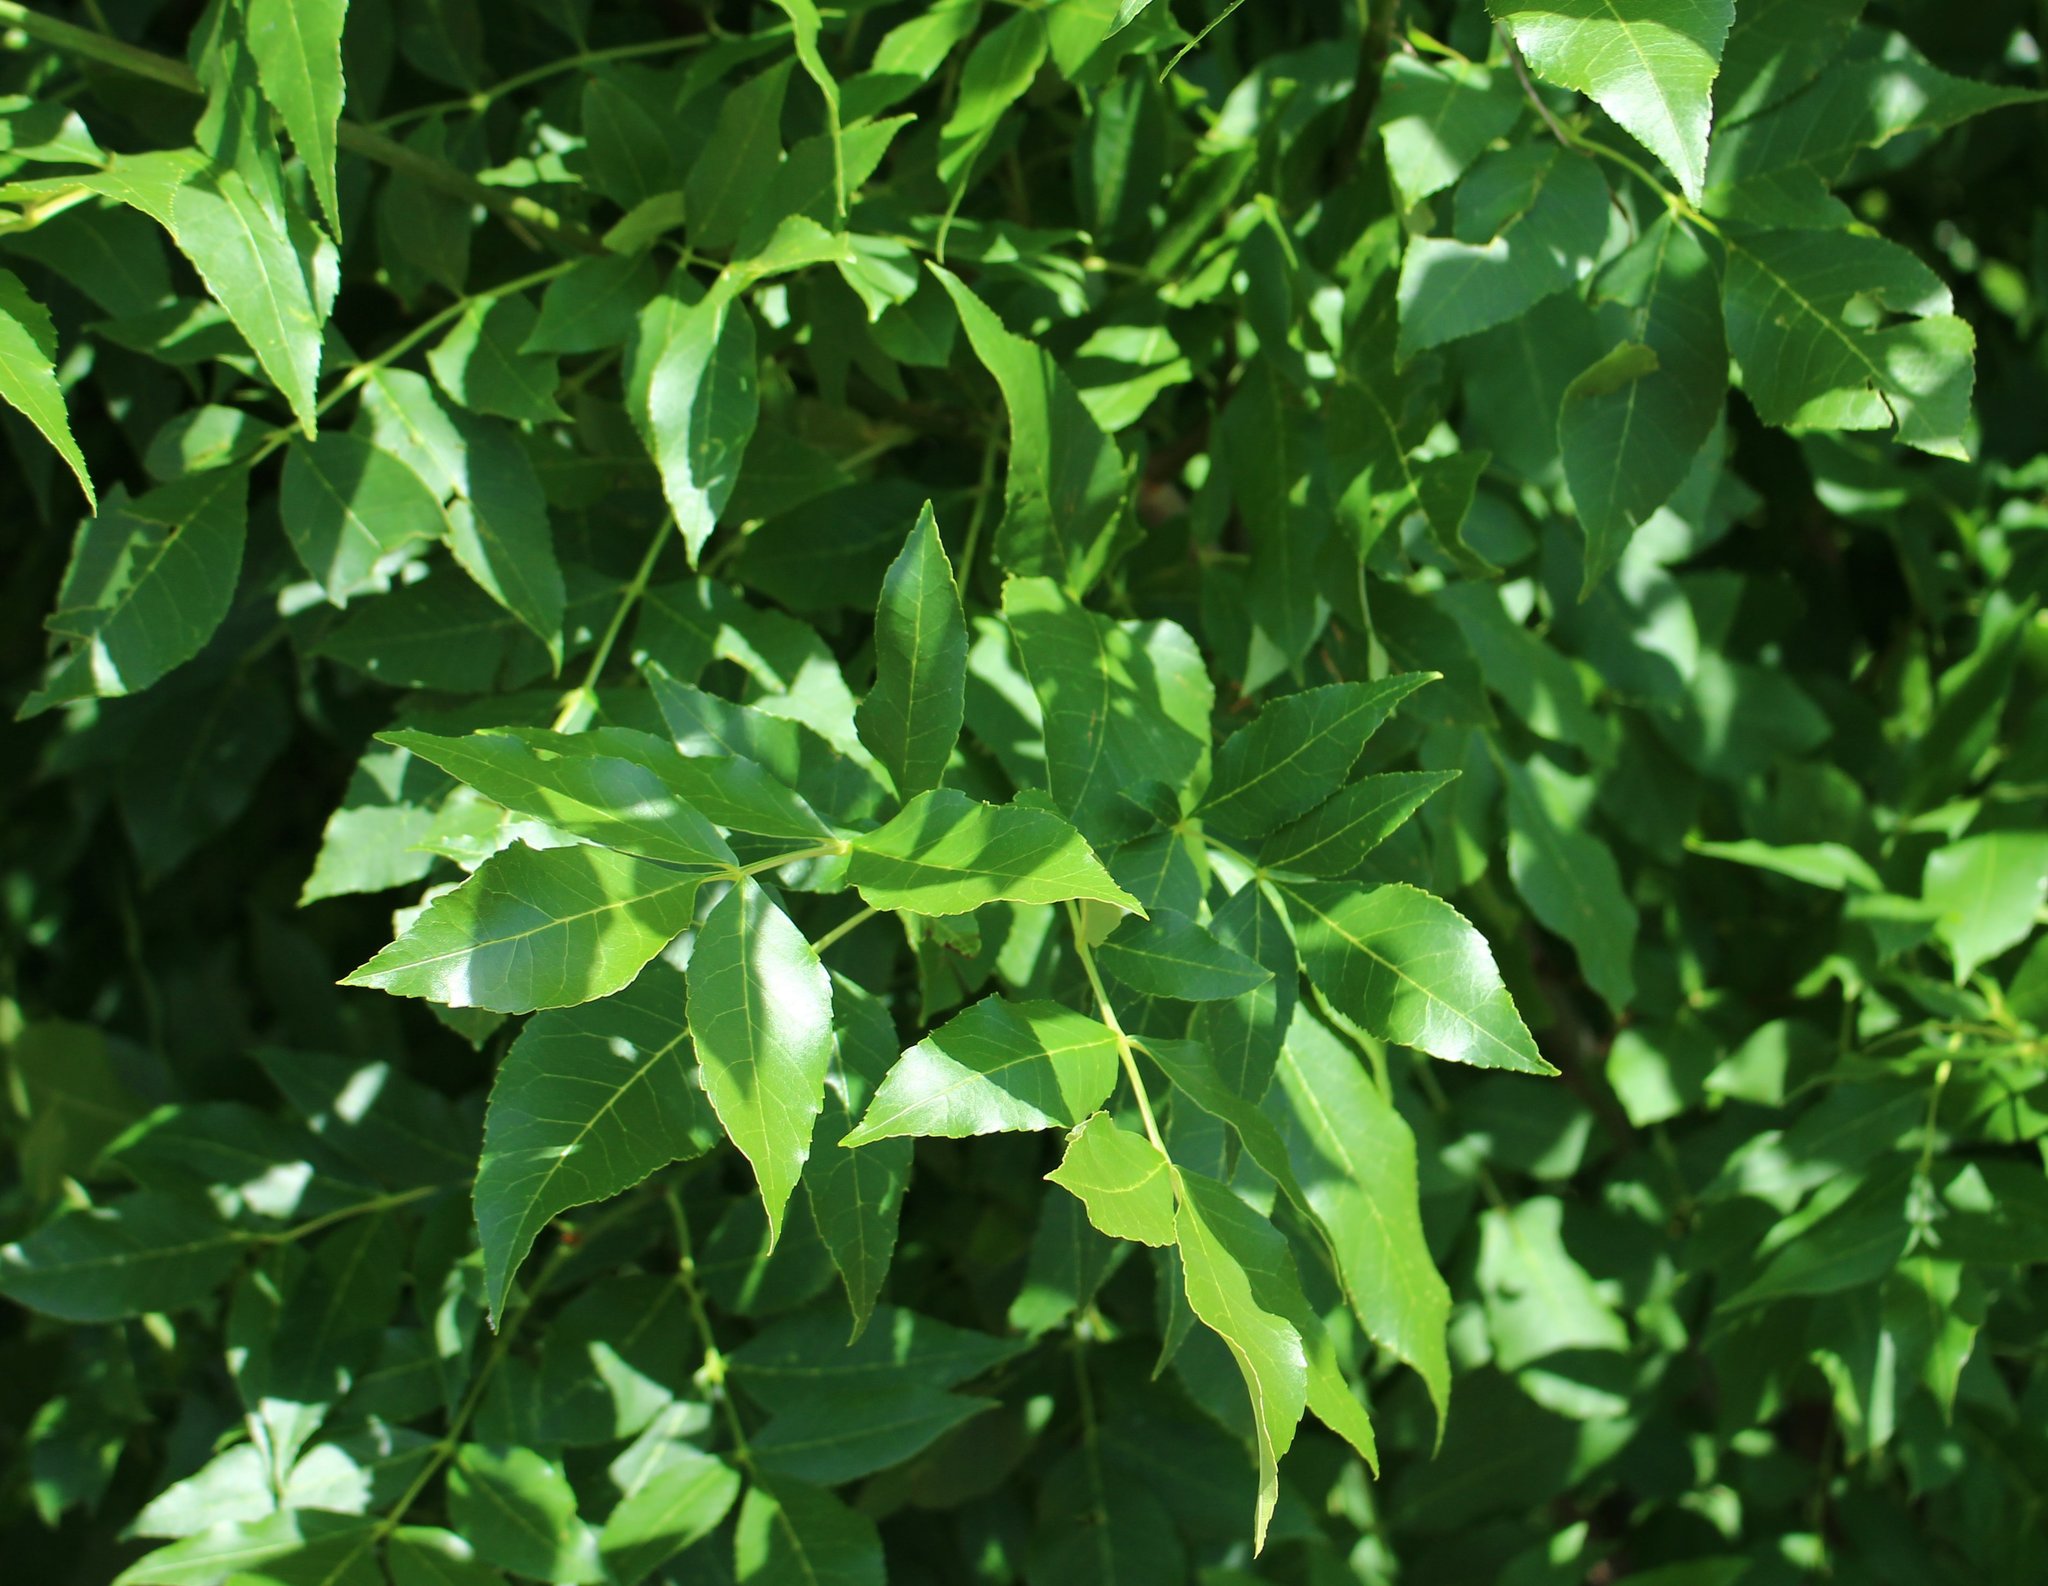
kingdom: Plantae
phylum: Tracheophyta
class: Magnoliopsida
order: Lamiales
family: Oleaceae
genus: Fraxinus
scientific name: Fraxinus pennsylvanica
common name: Green ash
